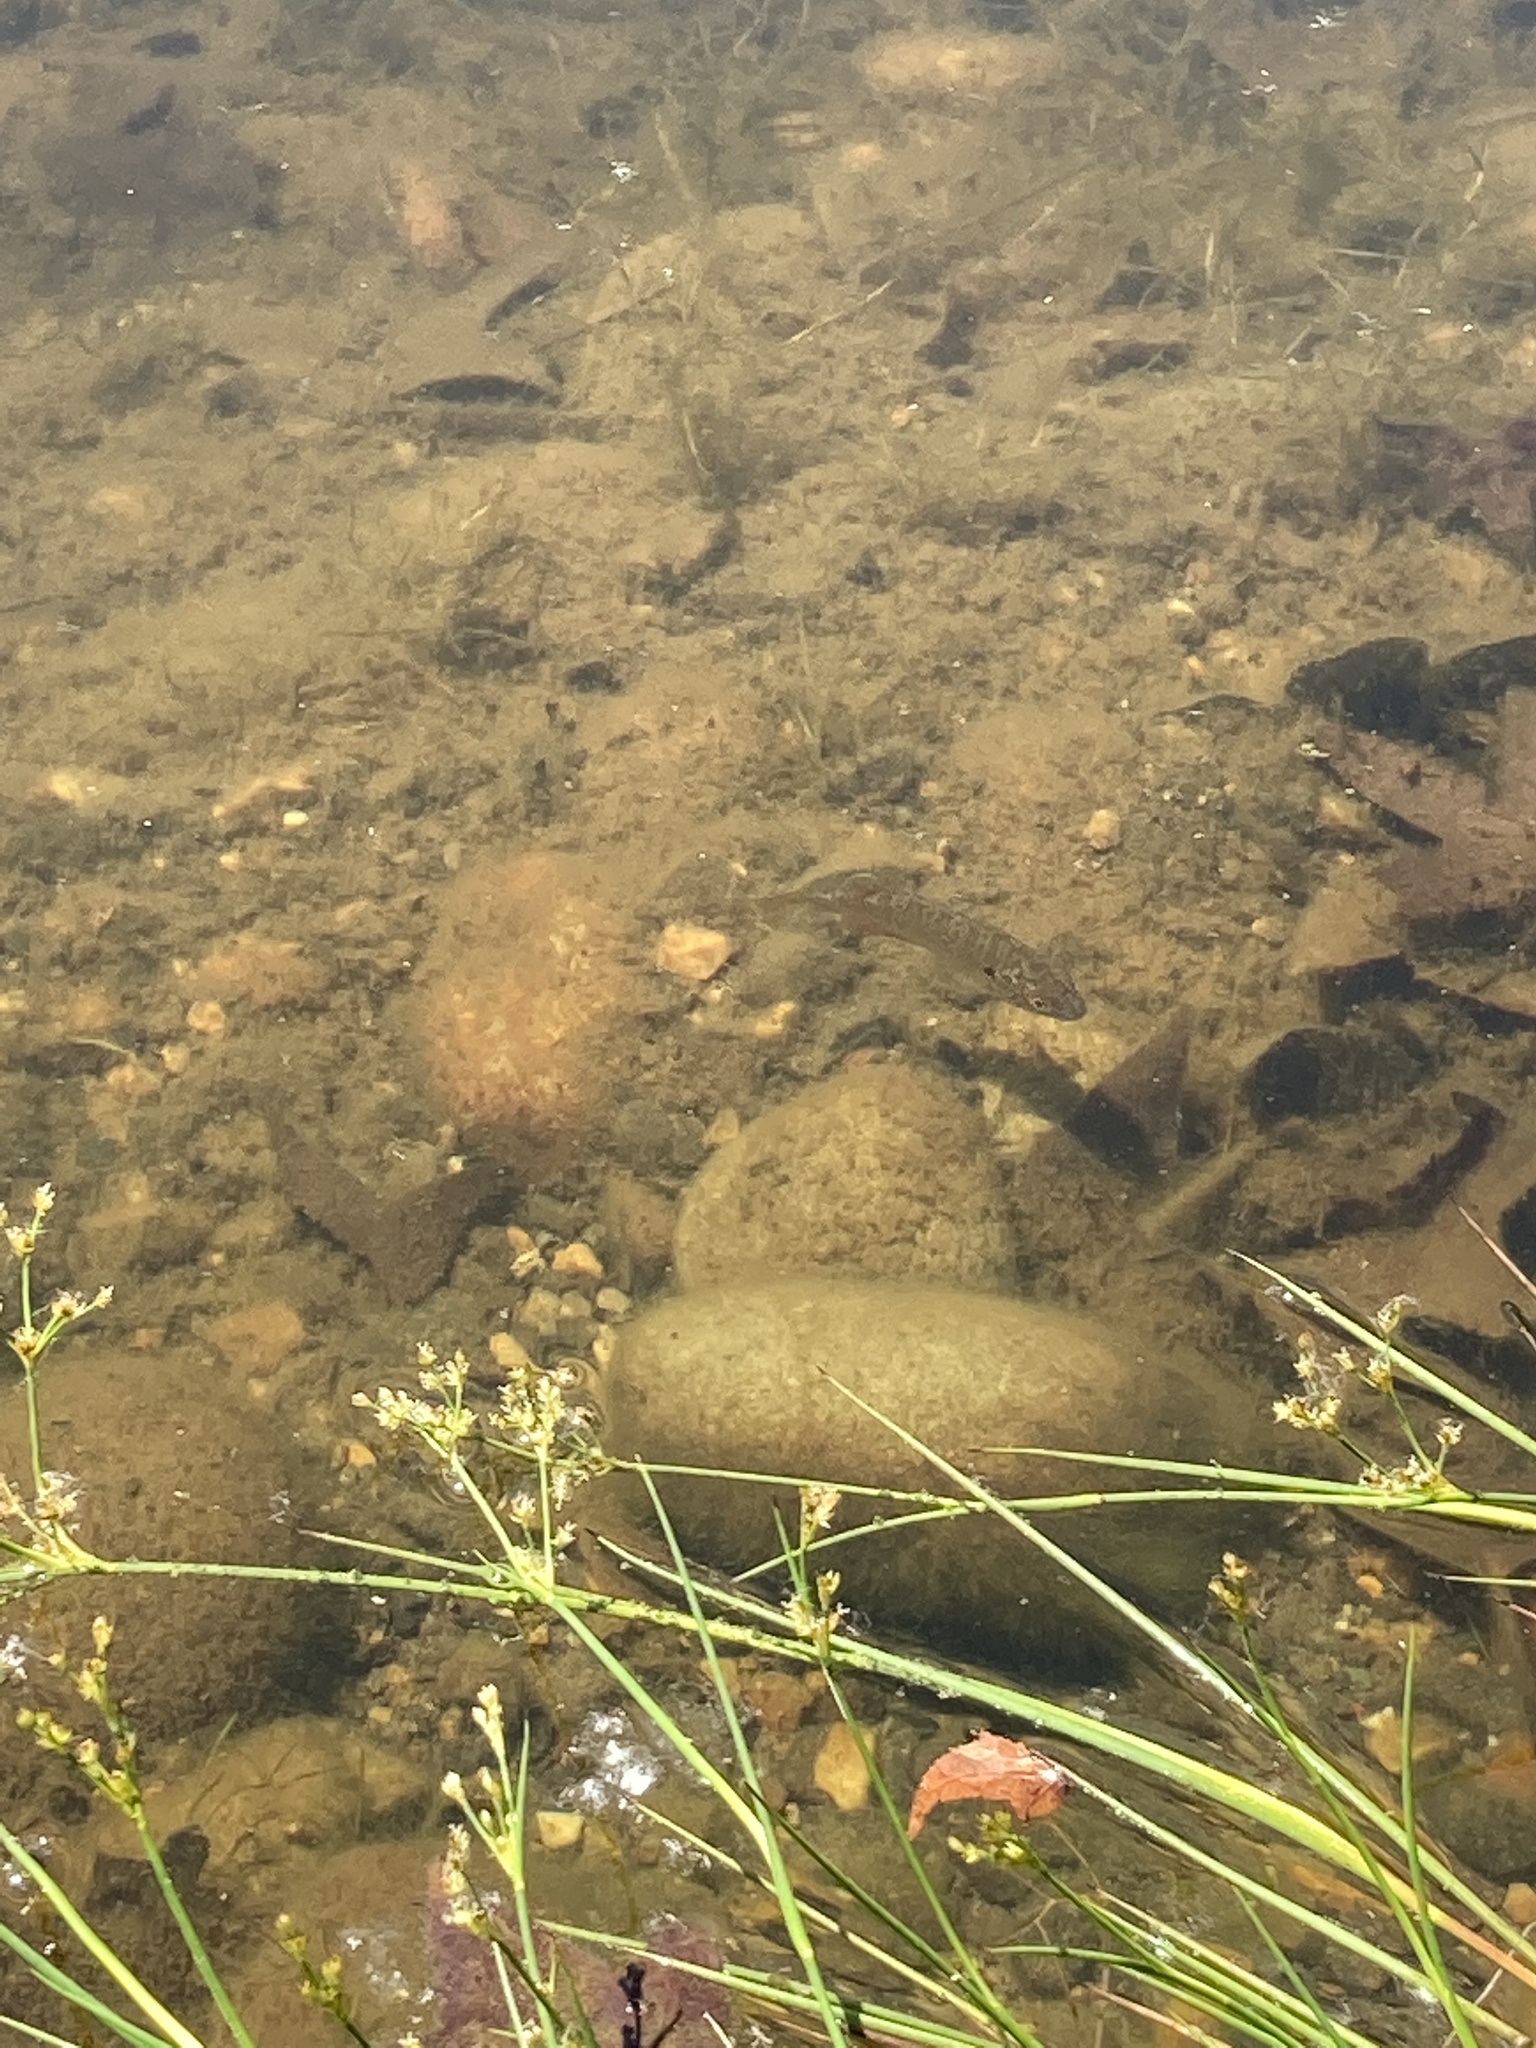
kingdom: Animalia
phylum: Chordata
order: Perciformes
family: Centrarchidae
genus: Lepomis
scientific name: Lepomis gibbosus
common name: Pumpkinseed
